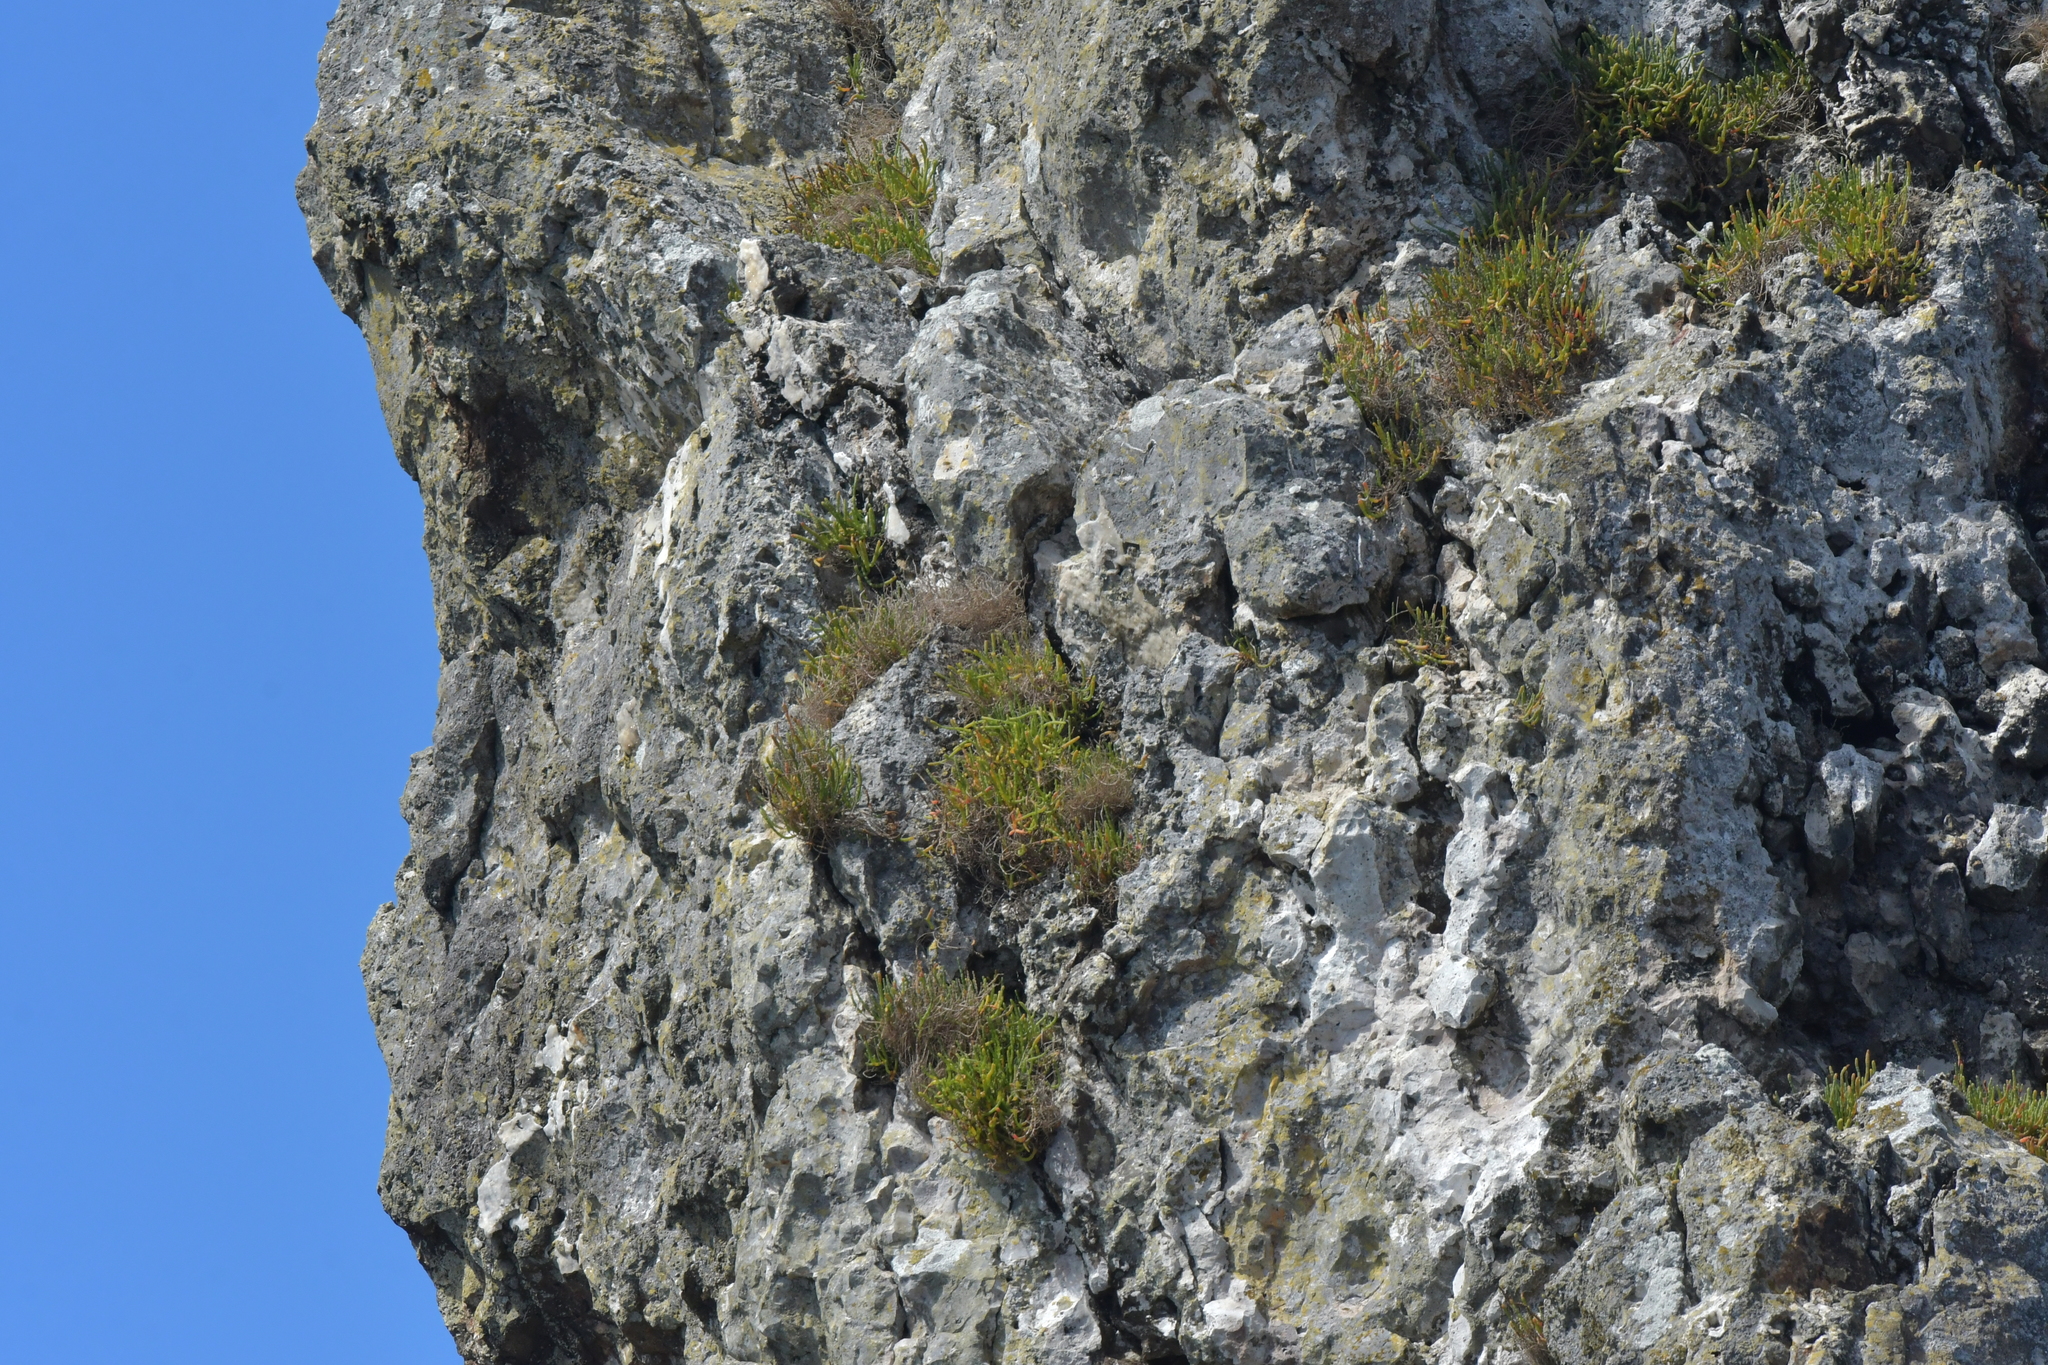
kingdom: Plantae
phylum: Tracheophyta
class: Magnoliopsida
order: Caryophyllales
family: Amaranthaceae
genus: Salicornia
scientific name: Salicornia quinqueflora
